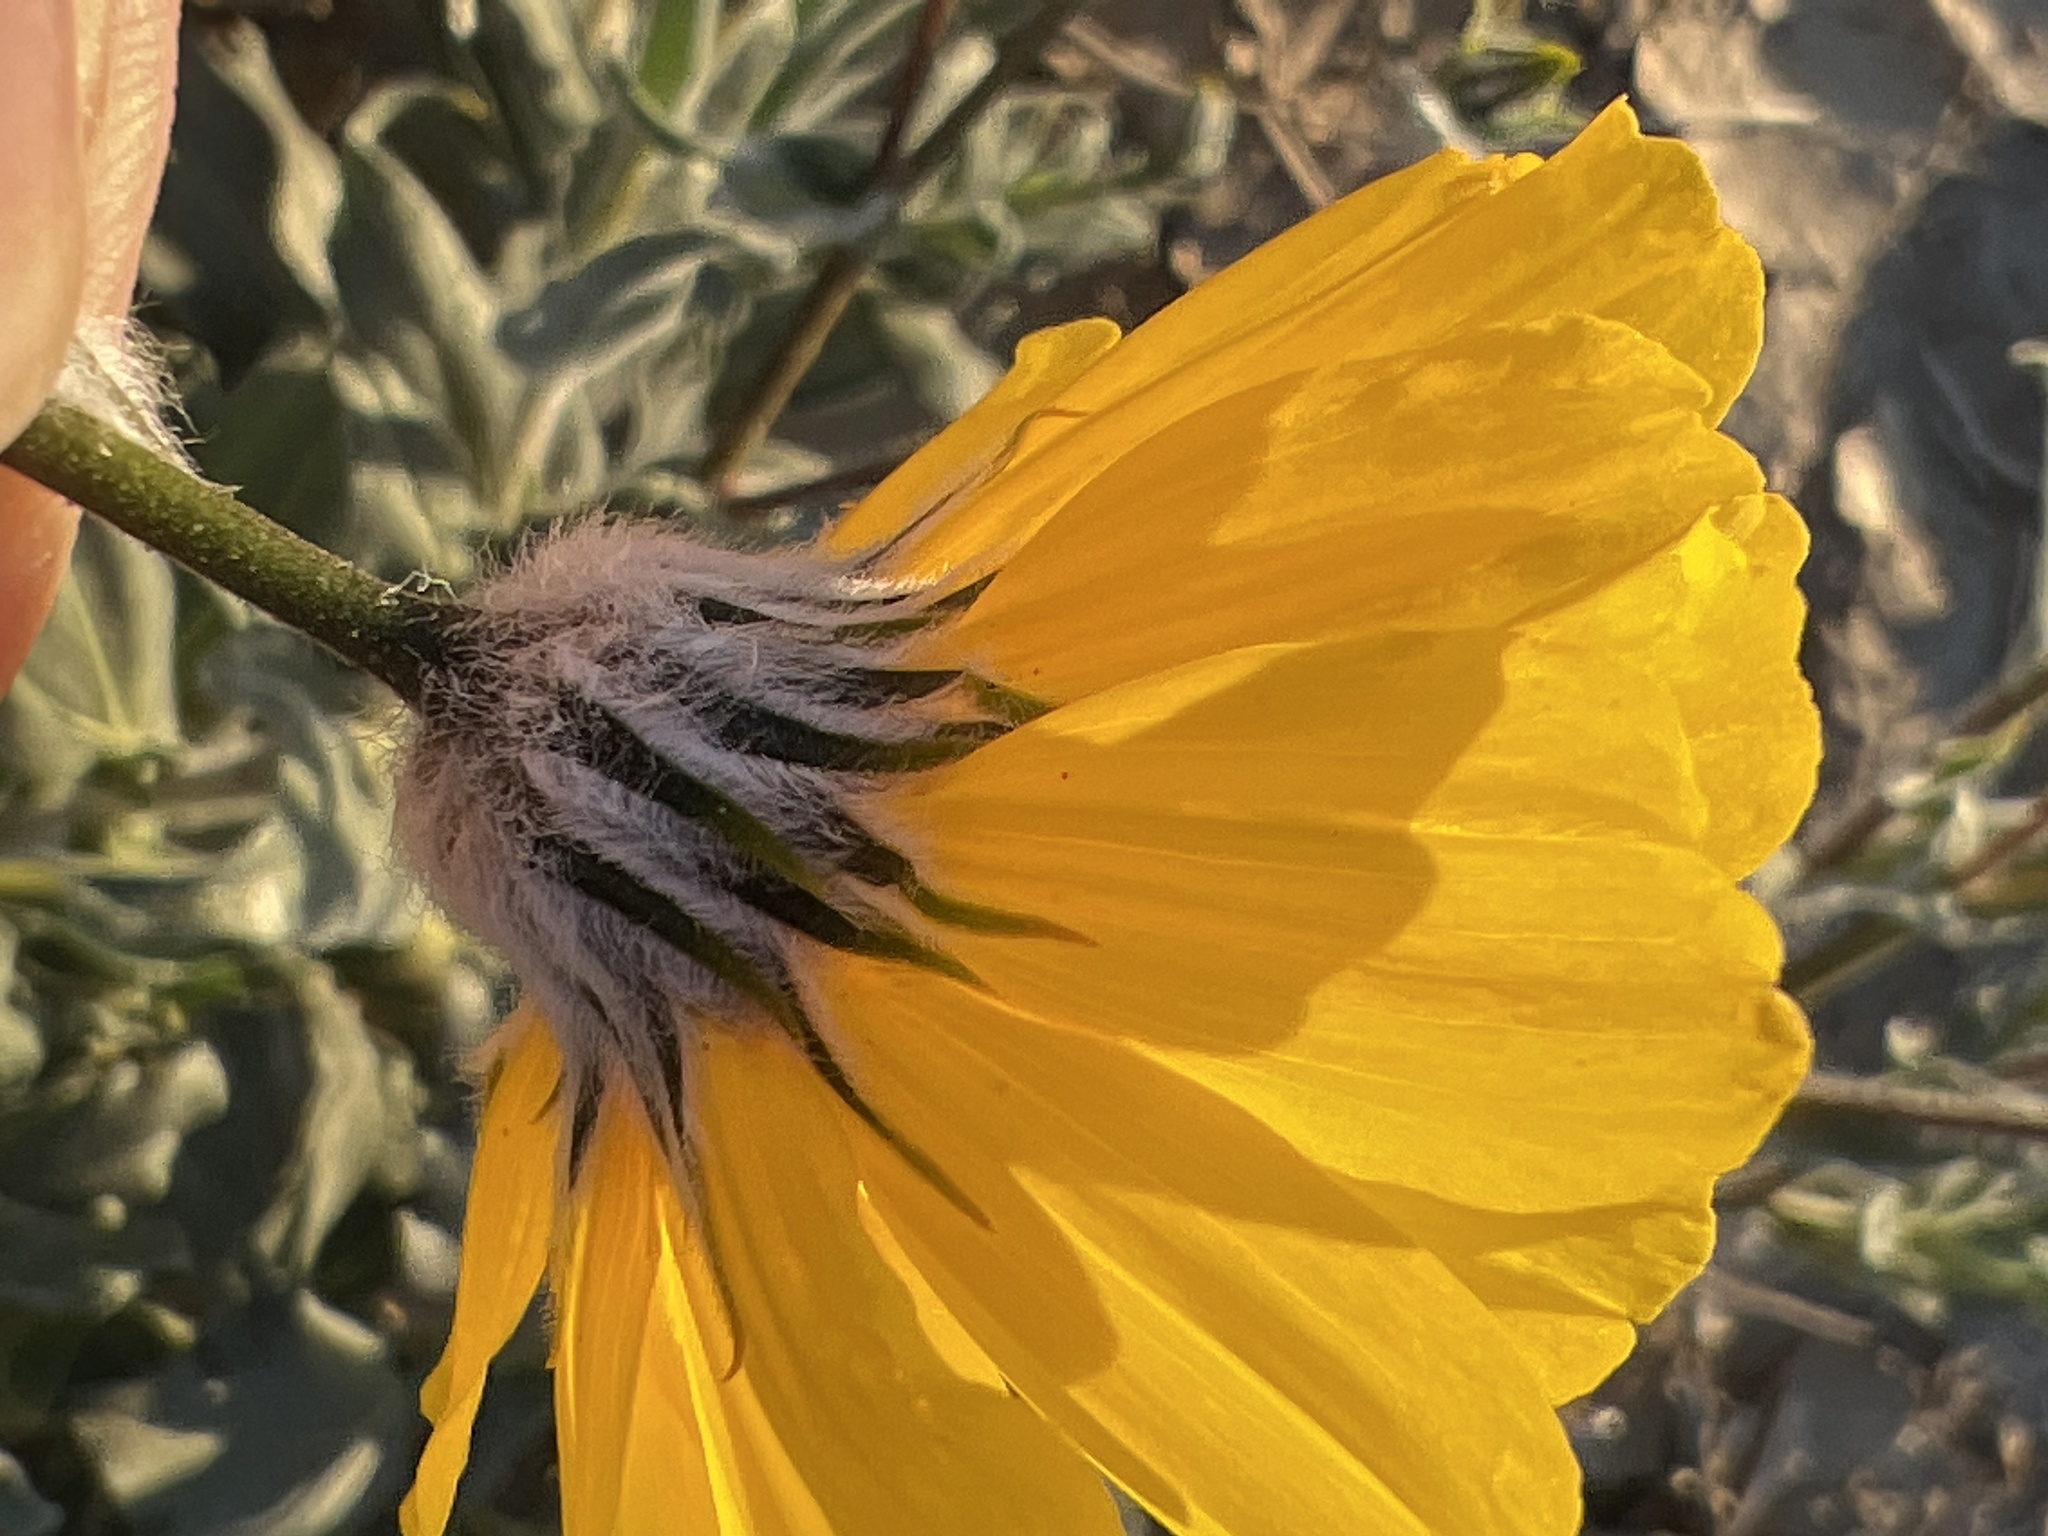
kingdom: Plantae
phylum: Tracheophyta
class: Magnoliopsida
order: Asterales
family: Asteraceae
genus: Geraea
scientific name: Geraea canescens
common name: Desert-gold
